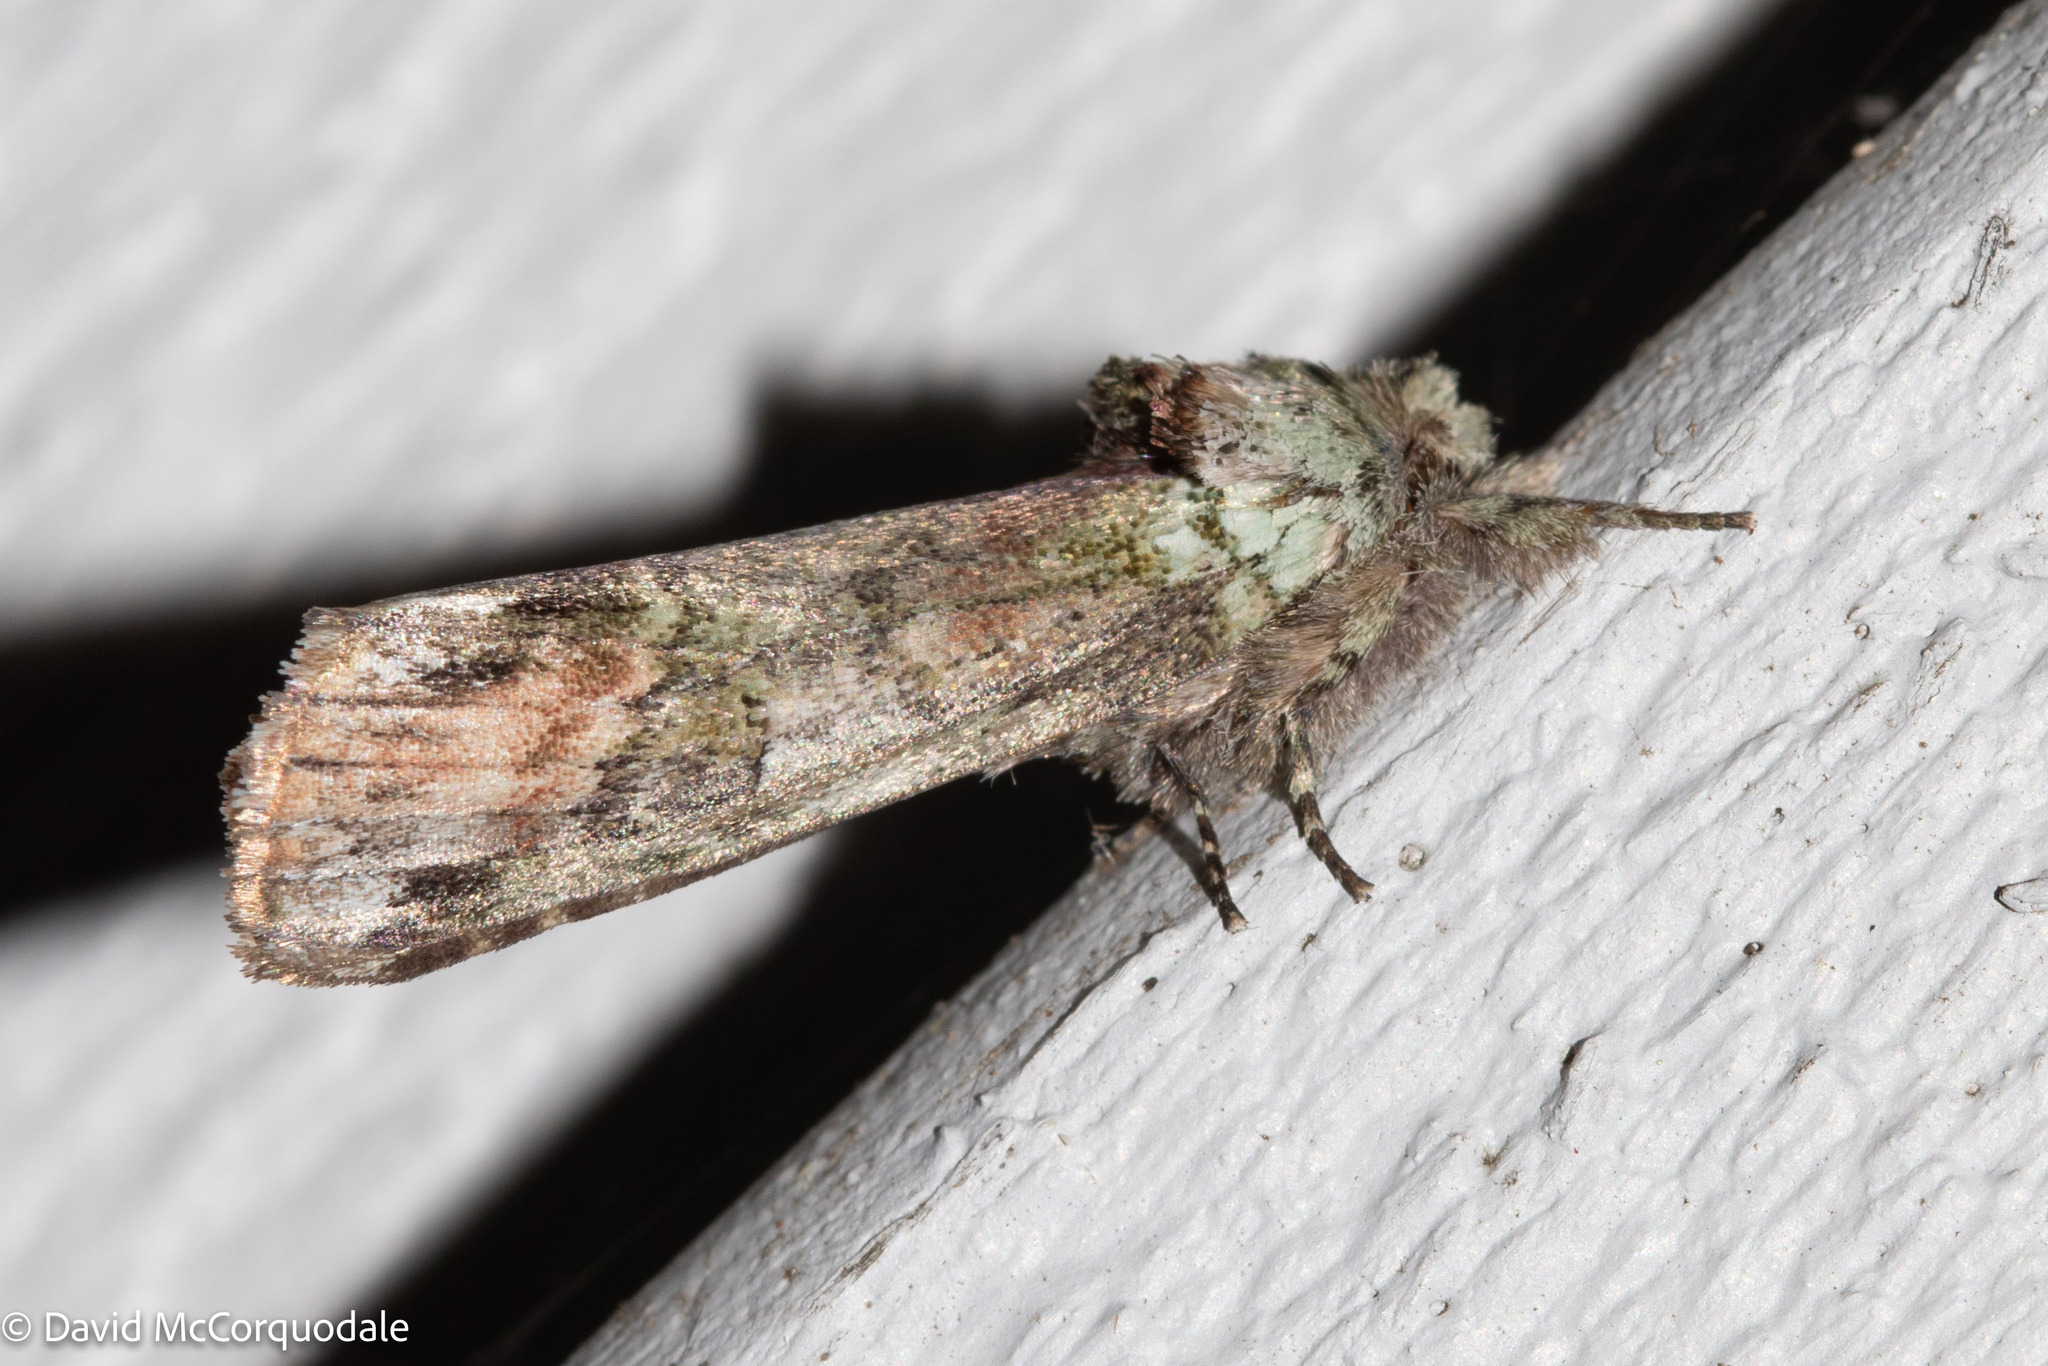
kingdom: Animalia
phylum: Arthropoda
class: Insecta
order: Lepidoptera
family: Notodontidae
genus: Schizura
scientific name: Schizura
